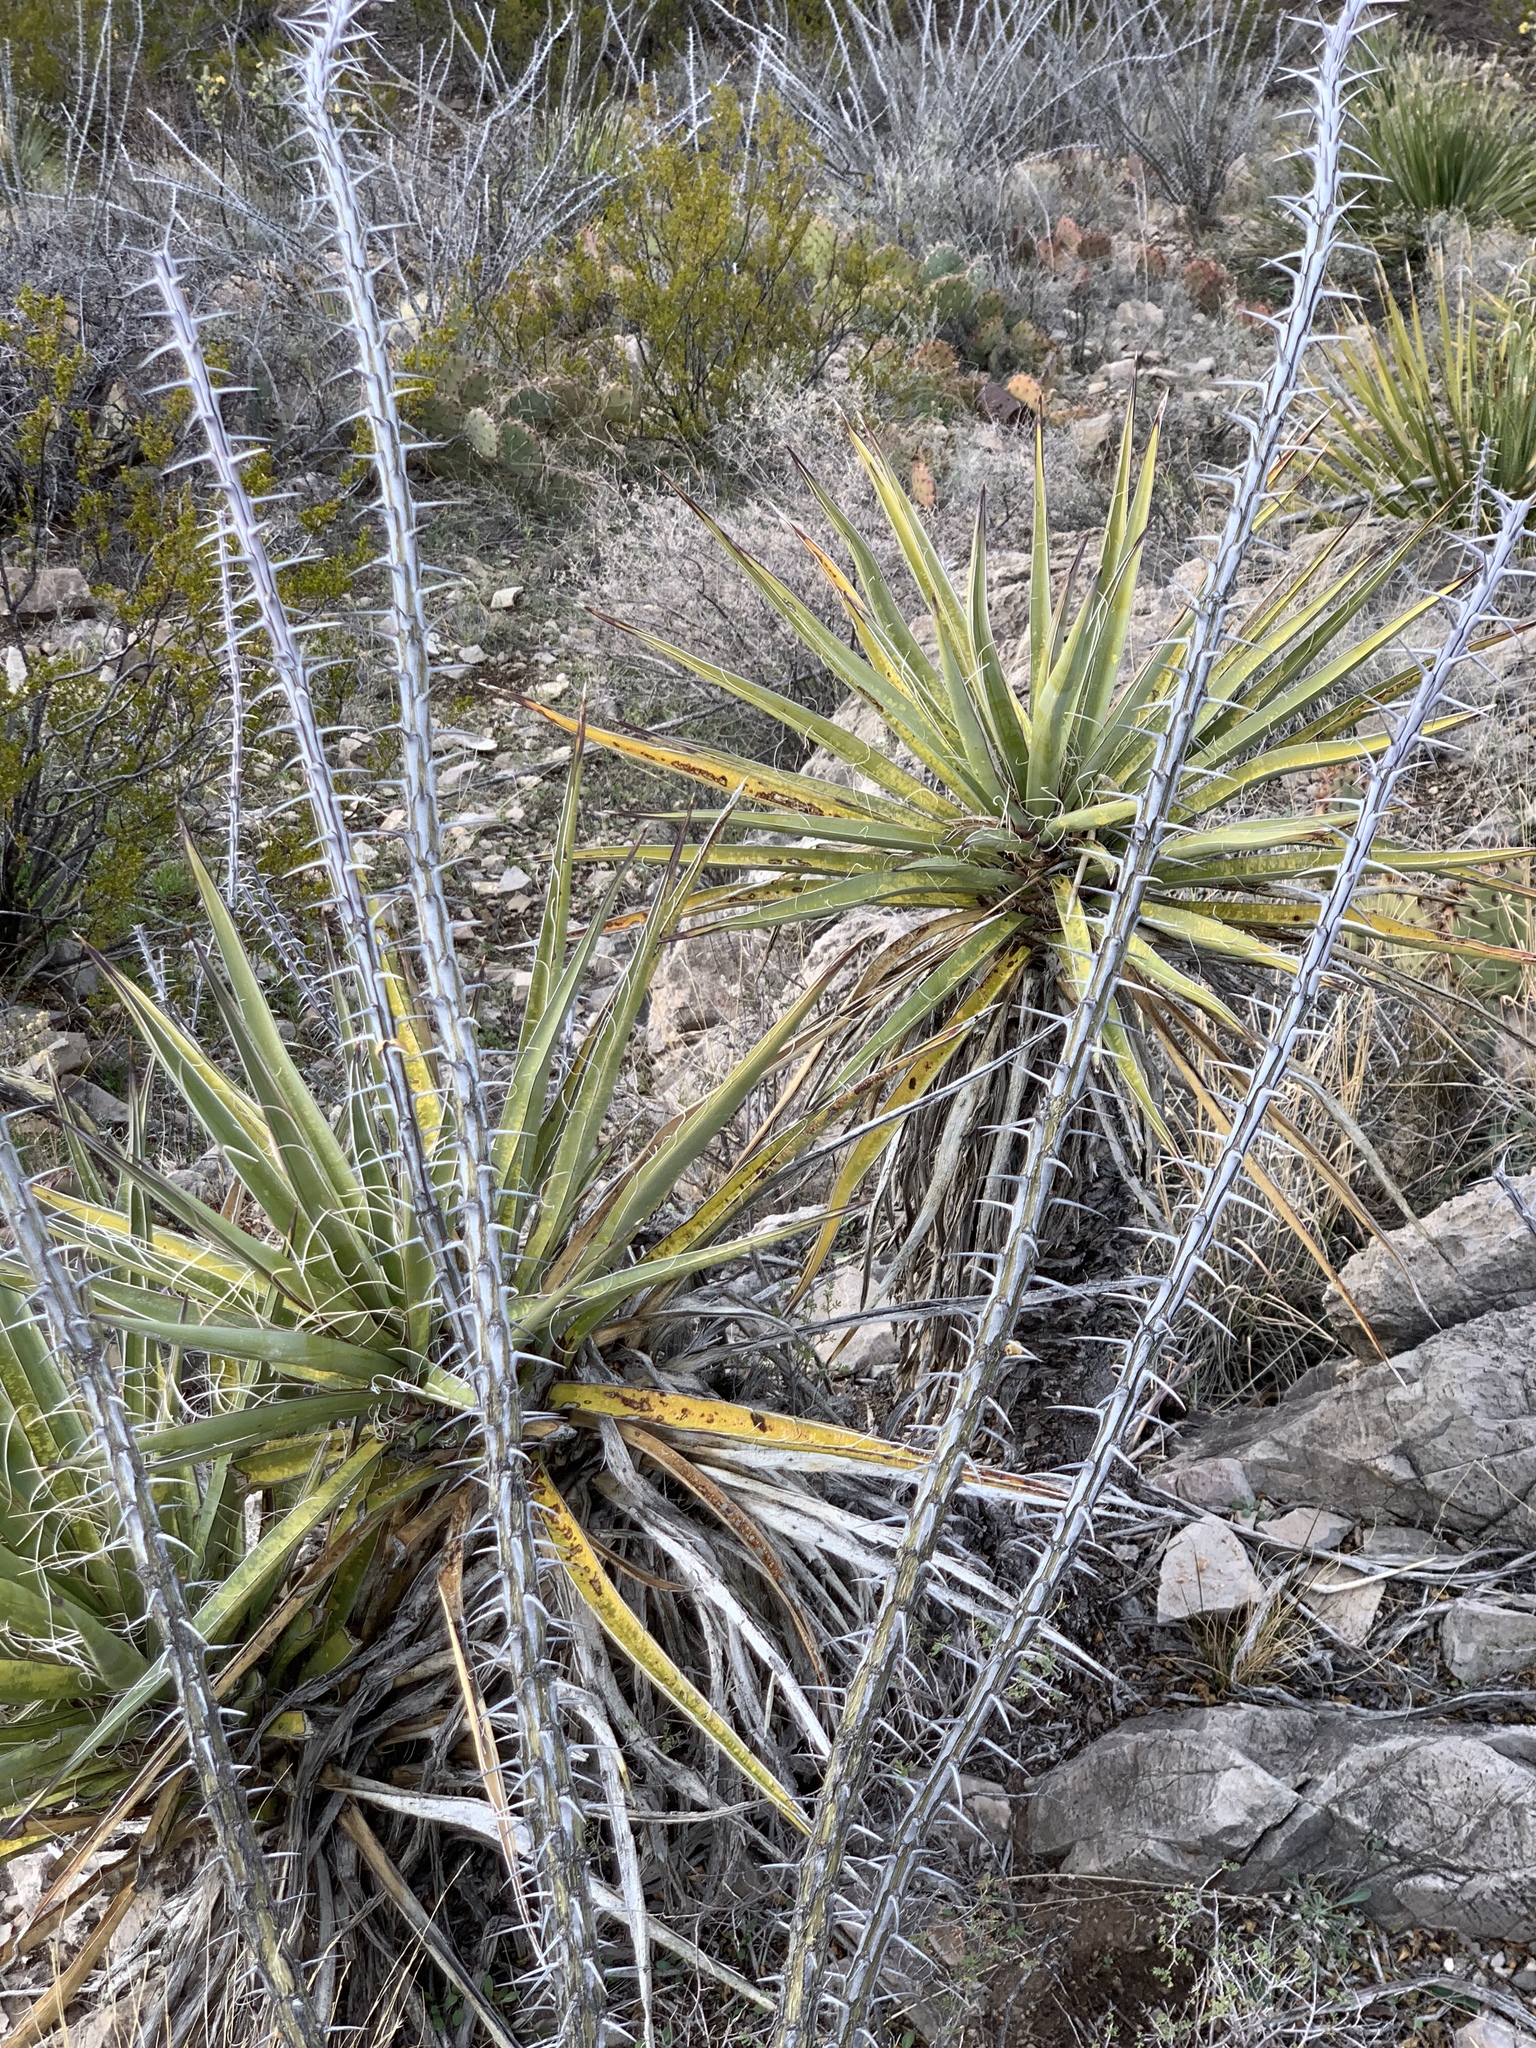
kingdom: Plantae
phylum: Tracheophyta
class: Liliopsida
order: Asparagales
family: Asparagaceae
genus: Yucca
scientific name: Yucca treculiana
